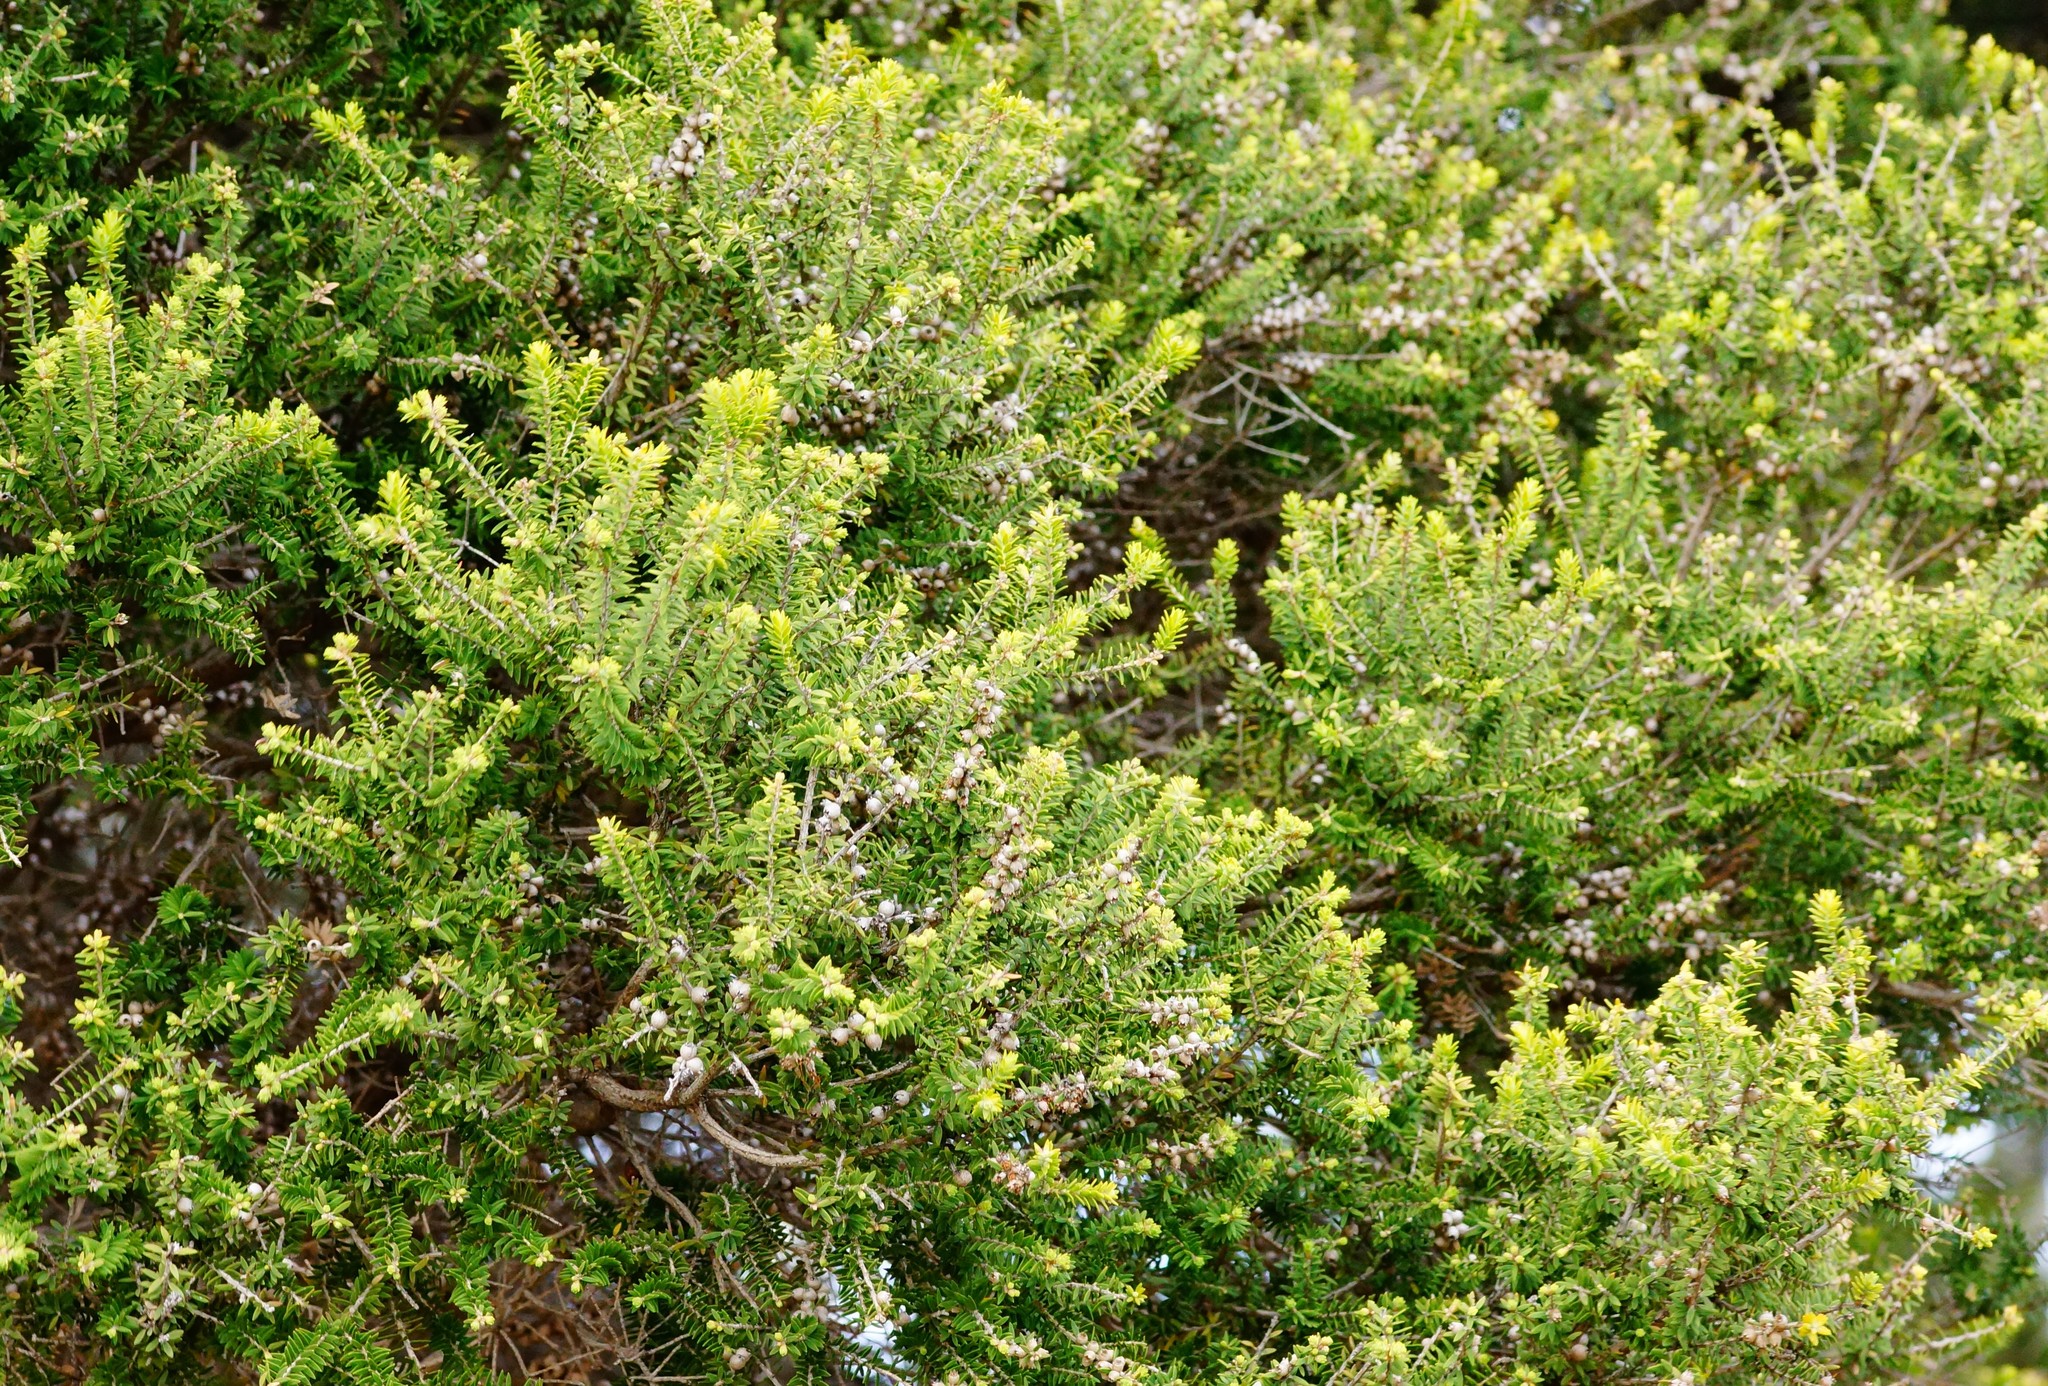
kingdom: Plantae
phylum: Tracheophyta
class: Magnoliopsida
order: Myrtales
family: Myrtaceae
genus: Melaleuca
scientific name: Melaleuca lanceolata
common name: Rottnest island teatree
